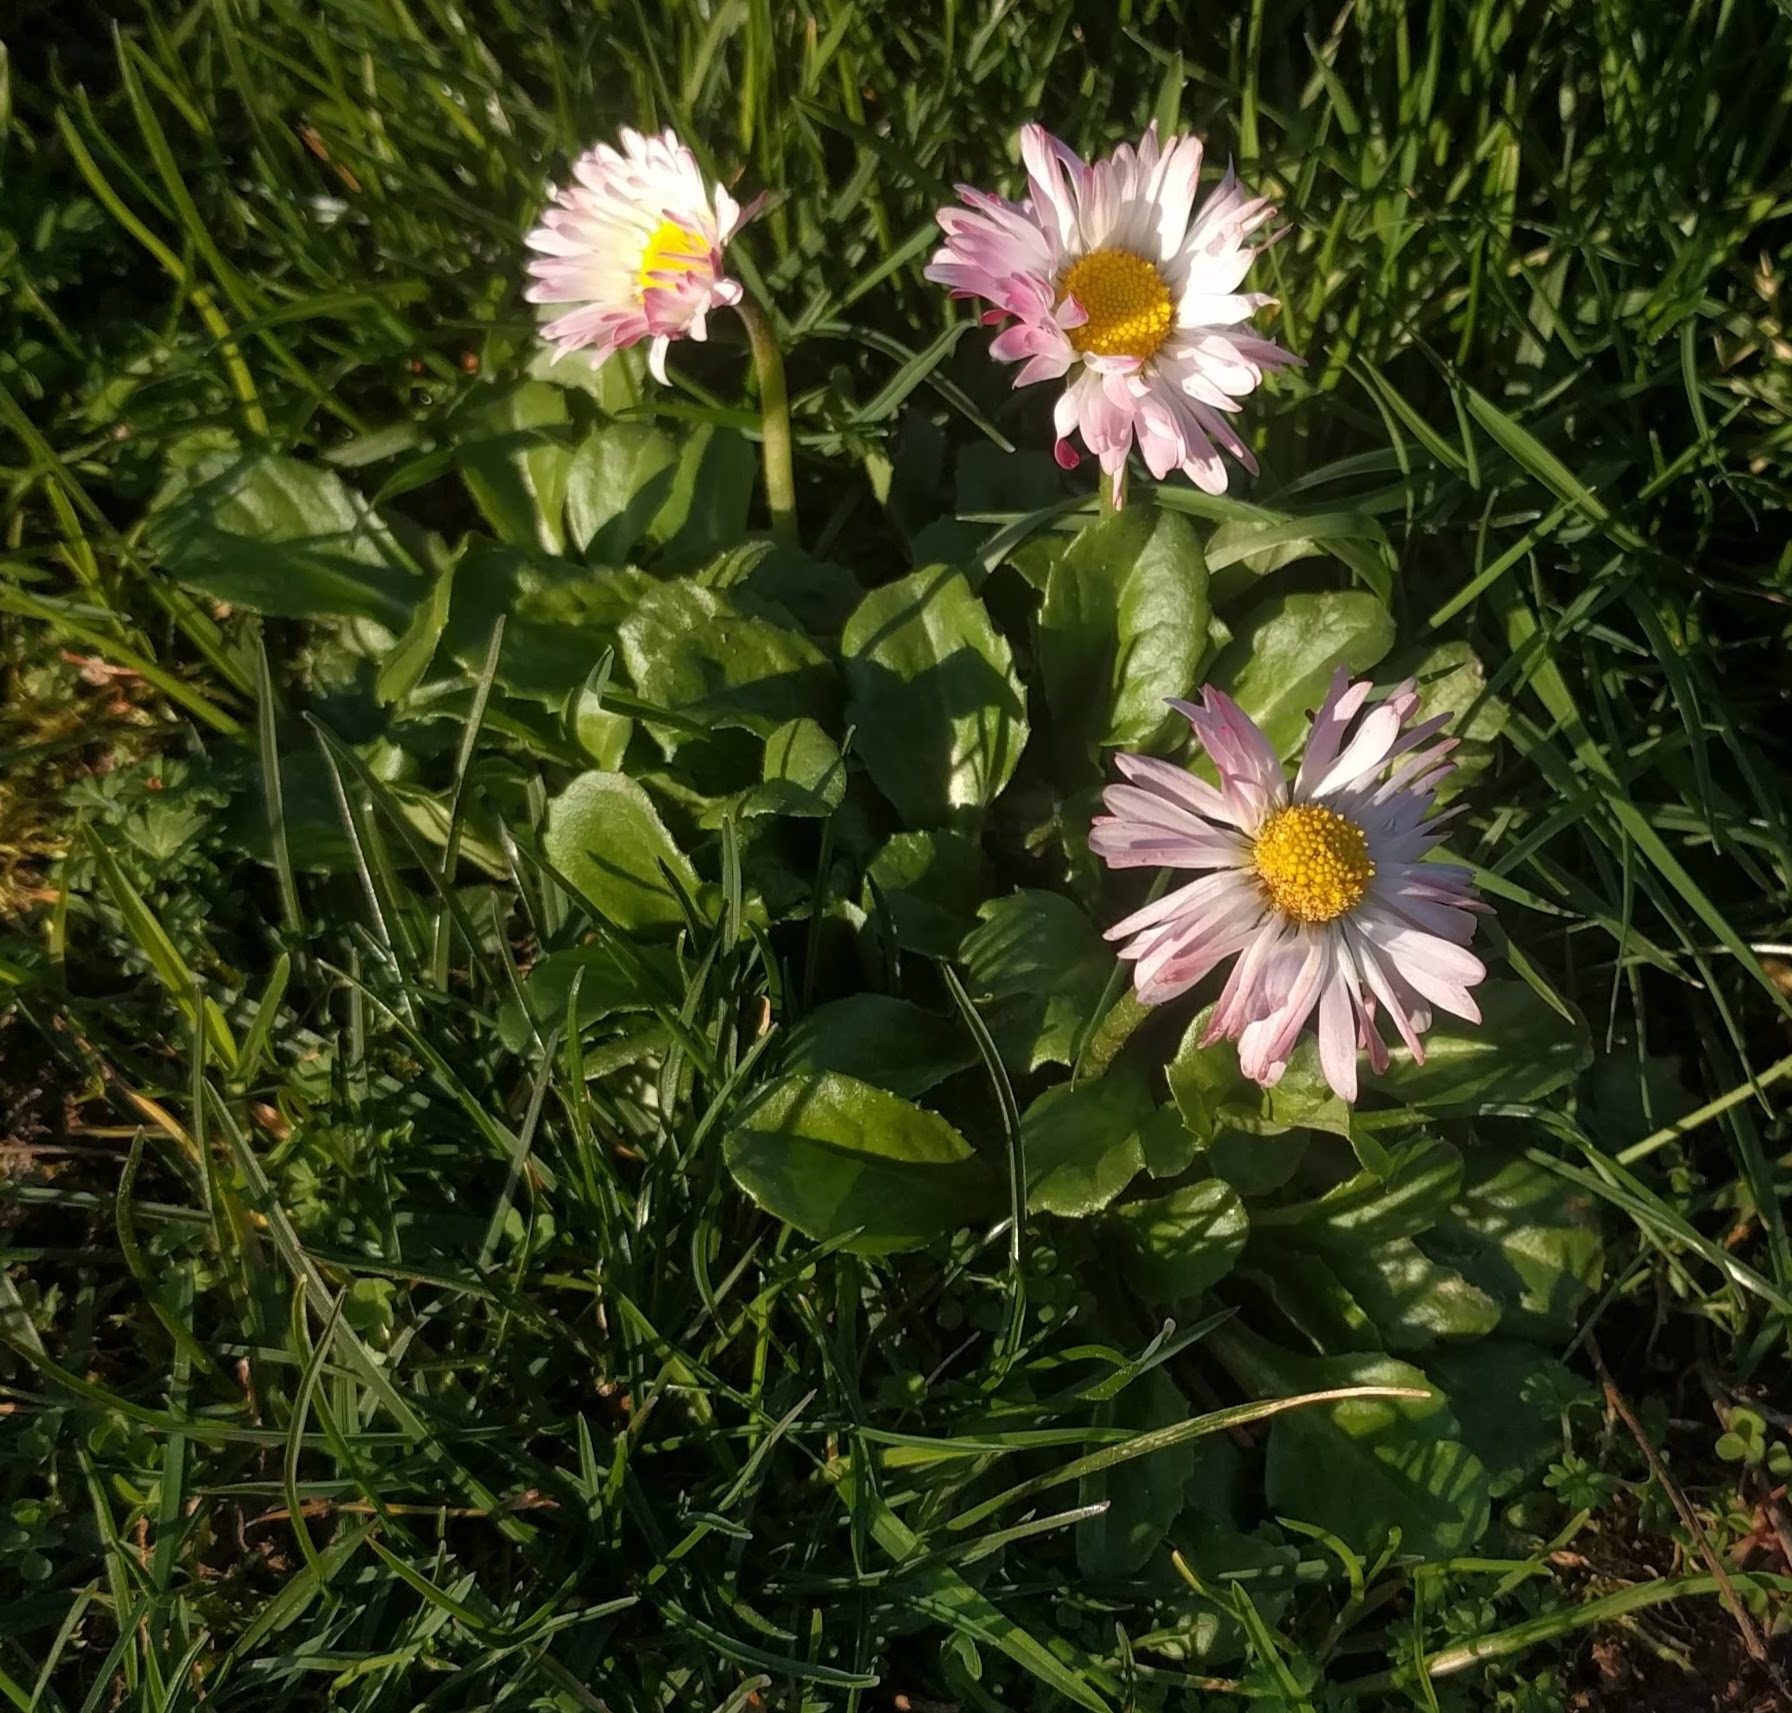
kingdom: Plantae
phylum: Tracheophyta
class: Magnoliopsida
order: Asterales
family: Asteraceae
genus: Bellis
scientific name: Bellis perennis
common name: Lawndaisy
